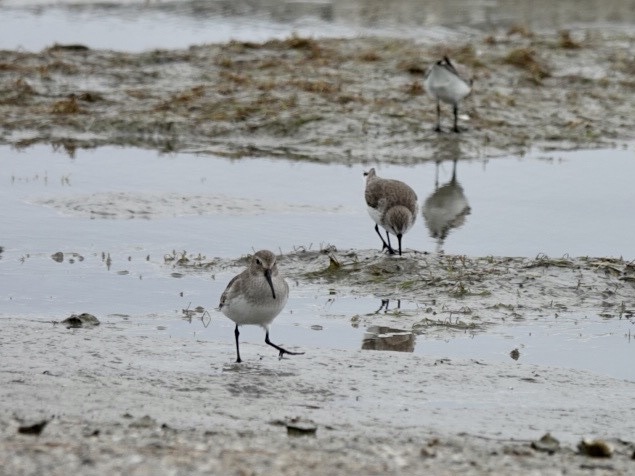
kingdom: Animalia
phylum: Chordata
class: Aves
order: Charadriiformes
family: Scolopacidae
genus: Calidris
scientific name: Calidris alpina
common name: Dunlin
